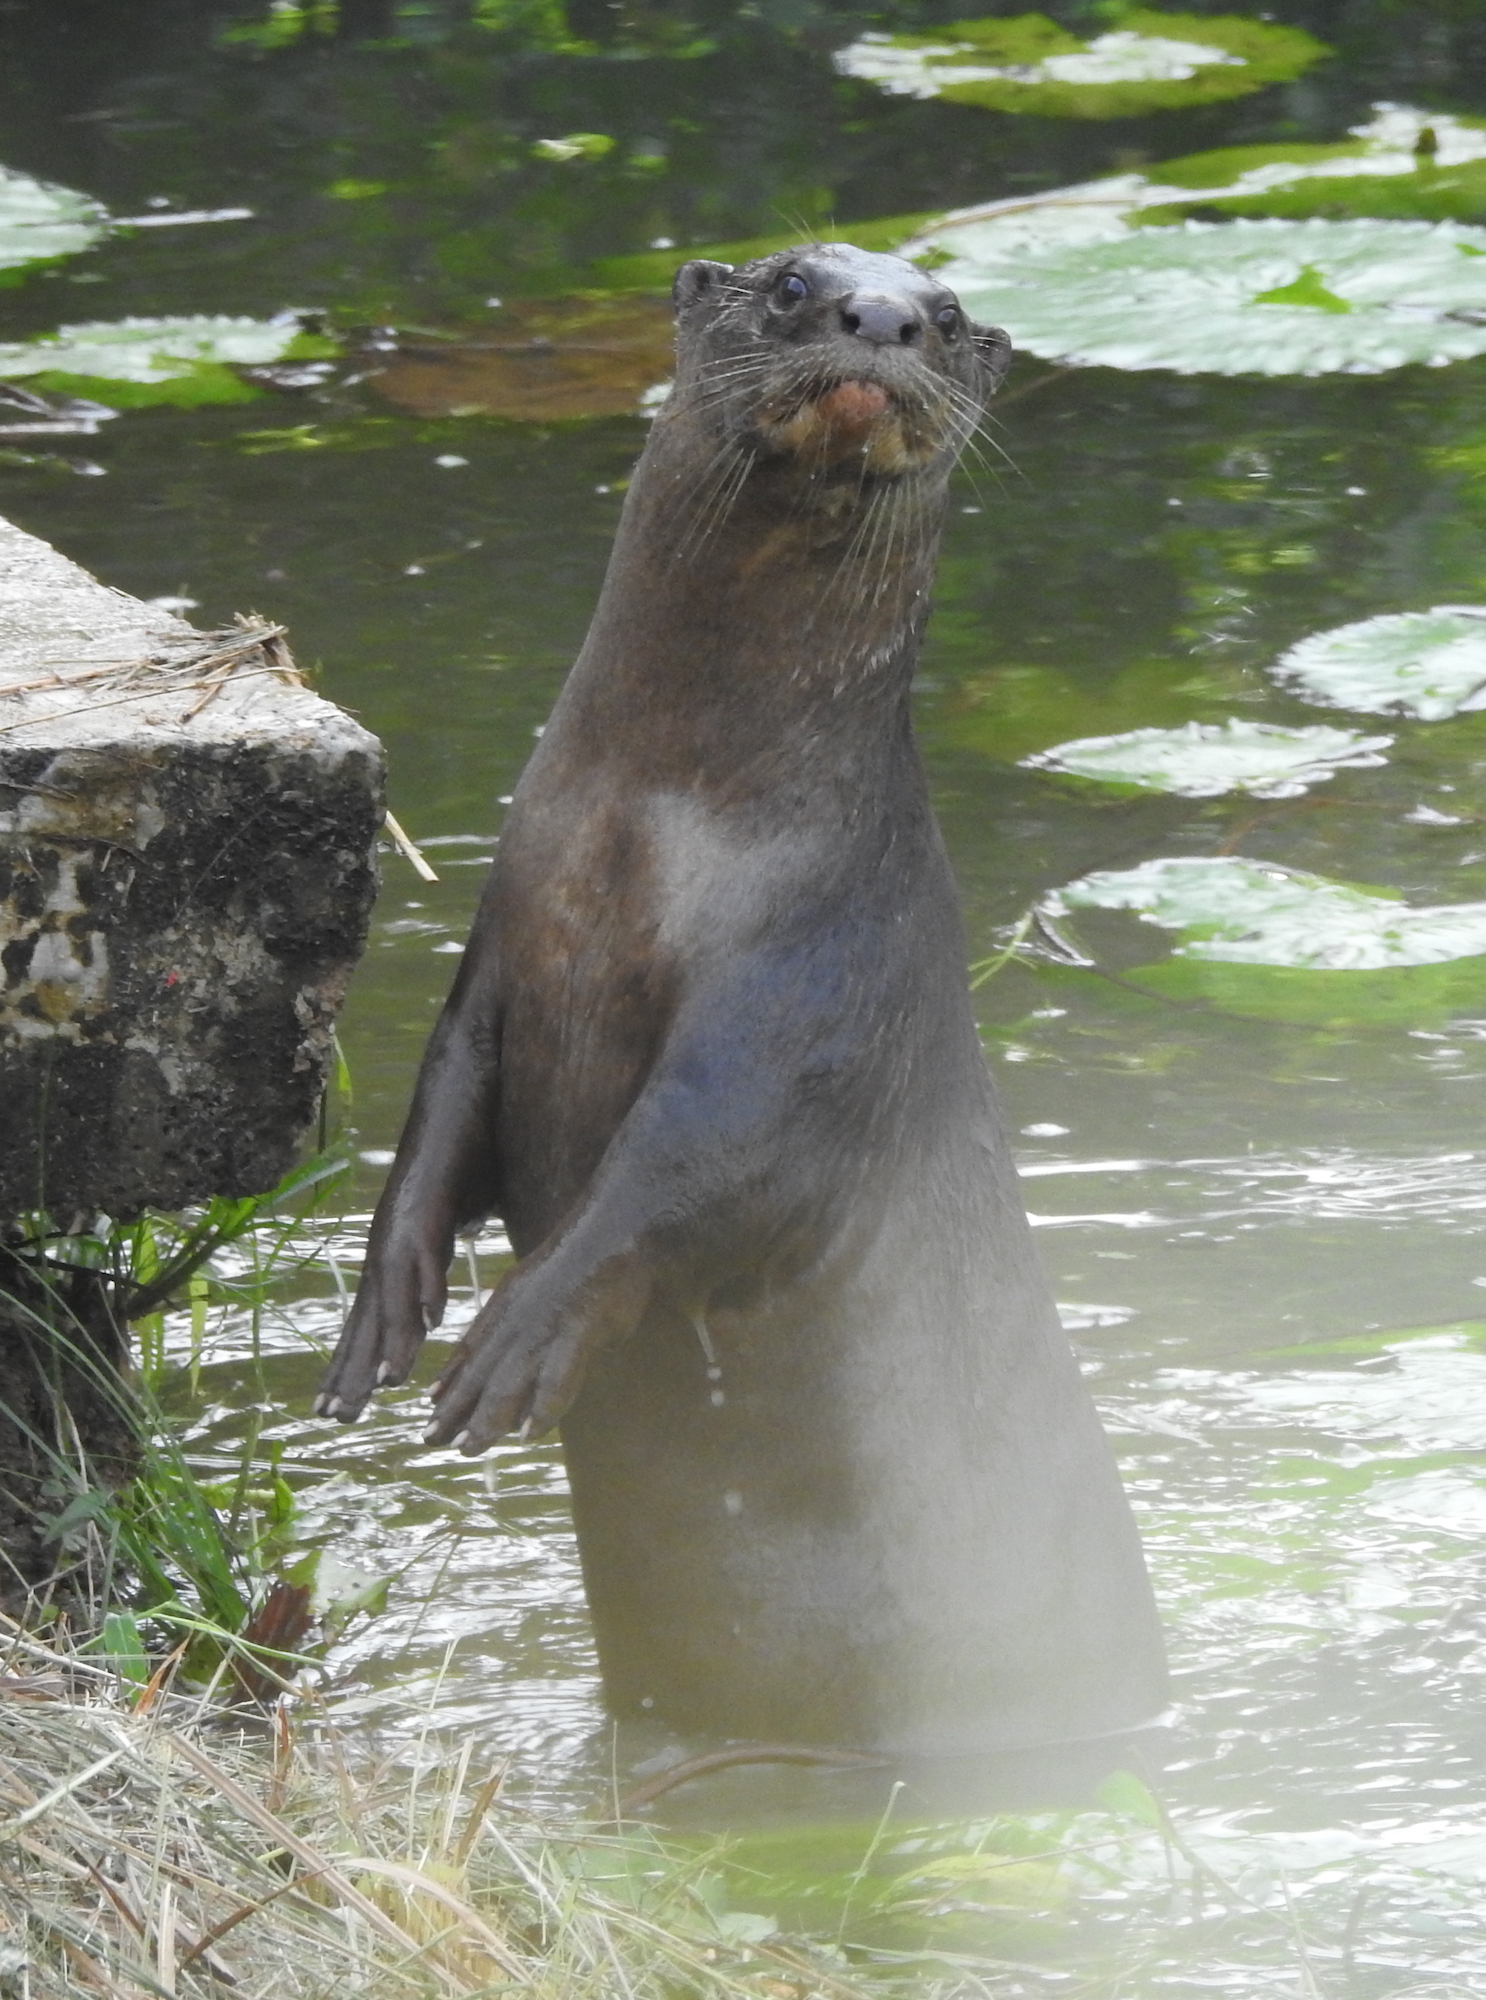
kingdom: Animalia
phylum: Chordata
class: Mammalia
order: Carnivora
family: Mustelidae
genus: Lutrogale
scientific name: Lutrogale perspicillata
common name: Smooth-coated otter
